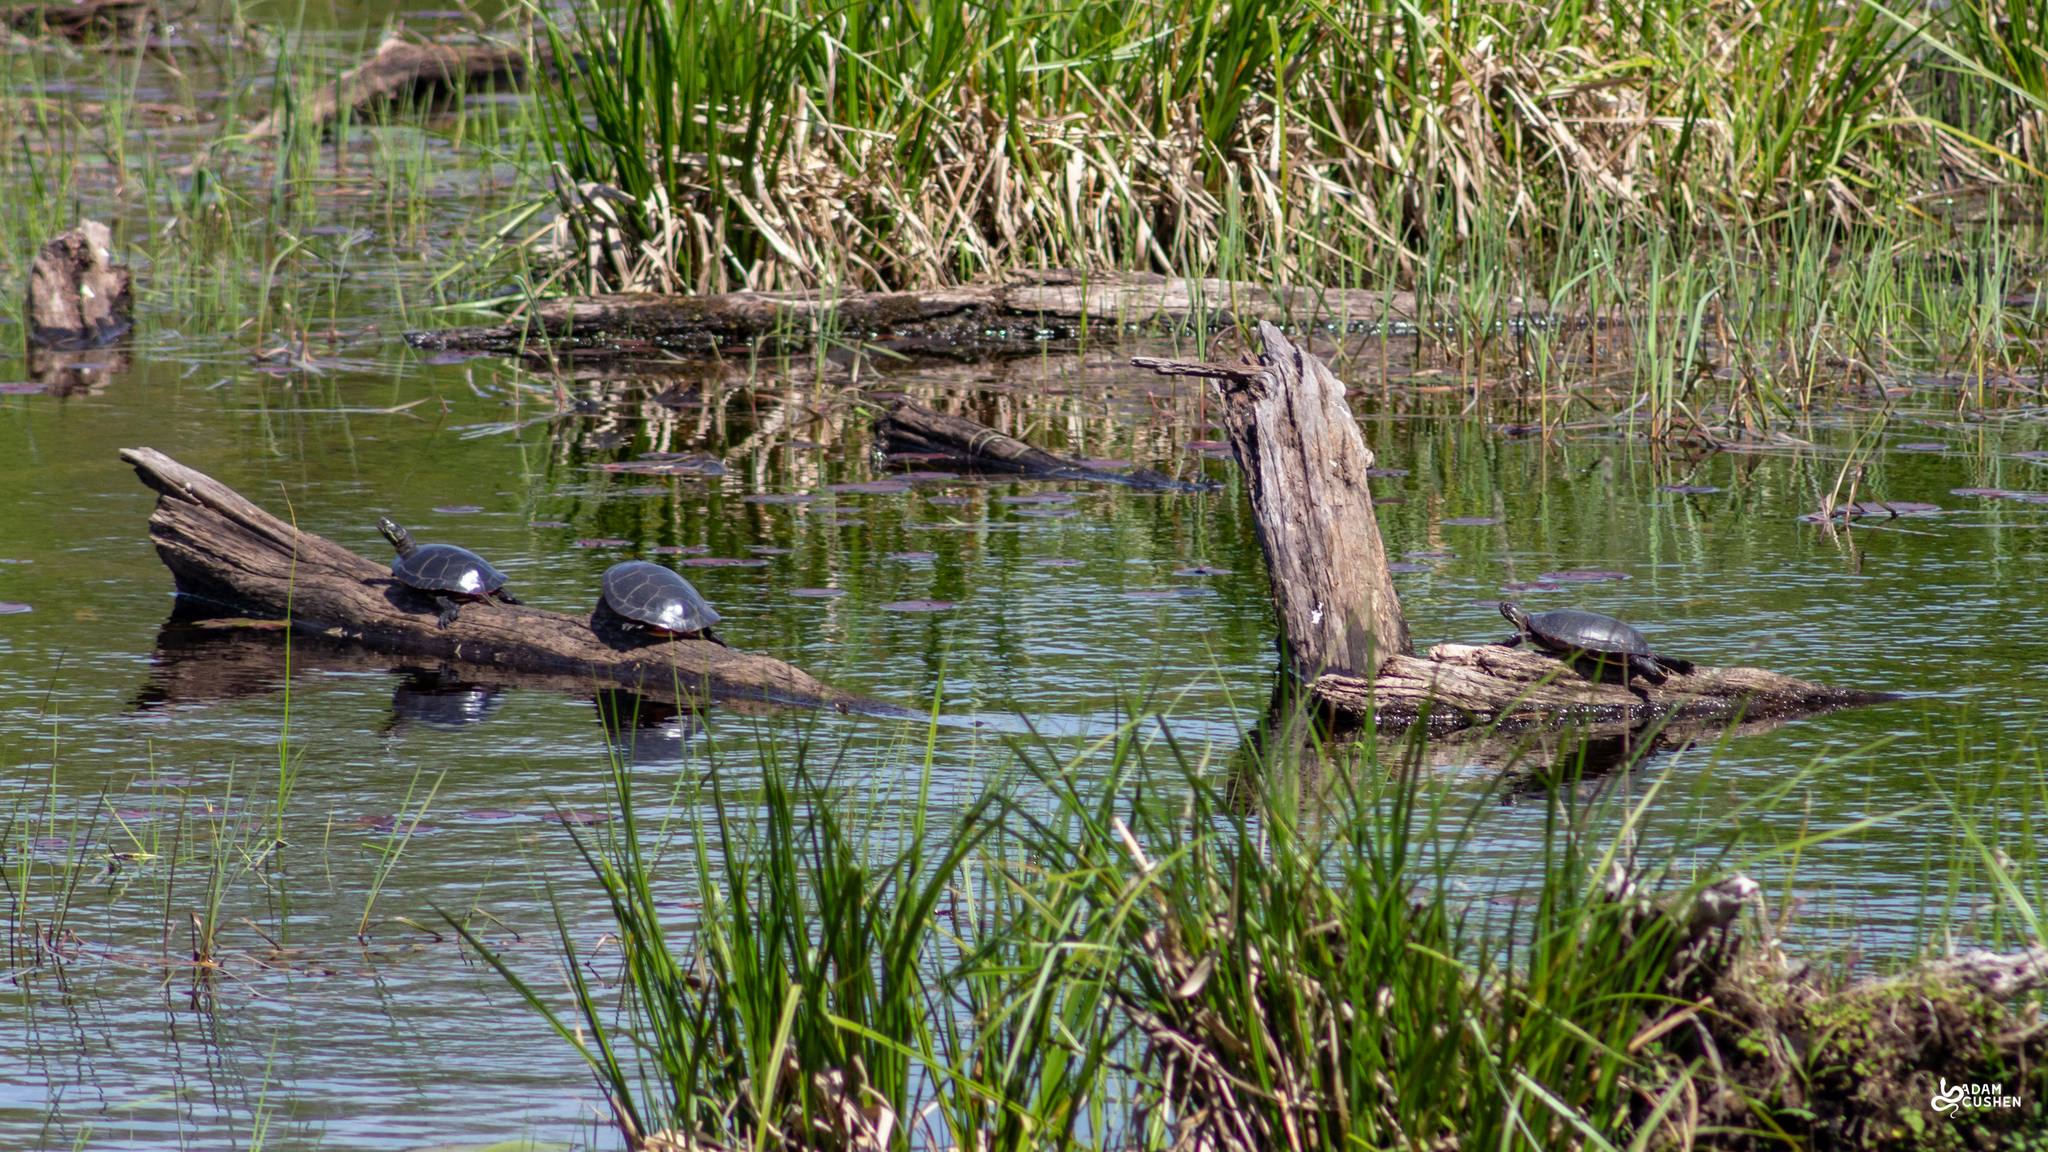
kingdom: Animalia
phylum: Chordata
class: Testudines
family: Emydidae
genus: Chrysemys
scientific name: Chrysemys picta
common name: Painted turtle
